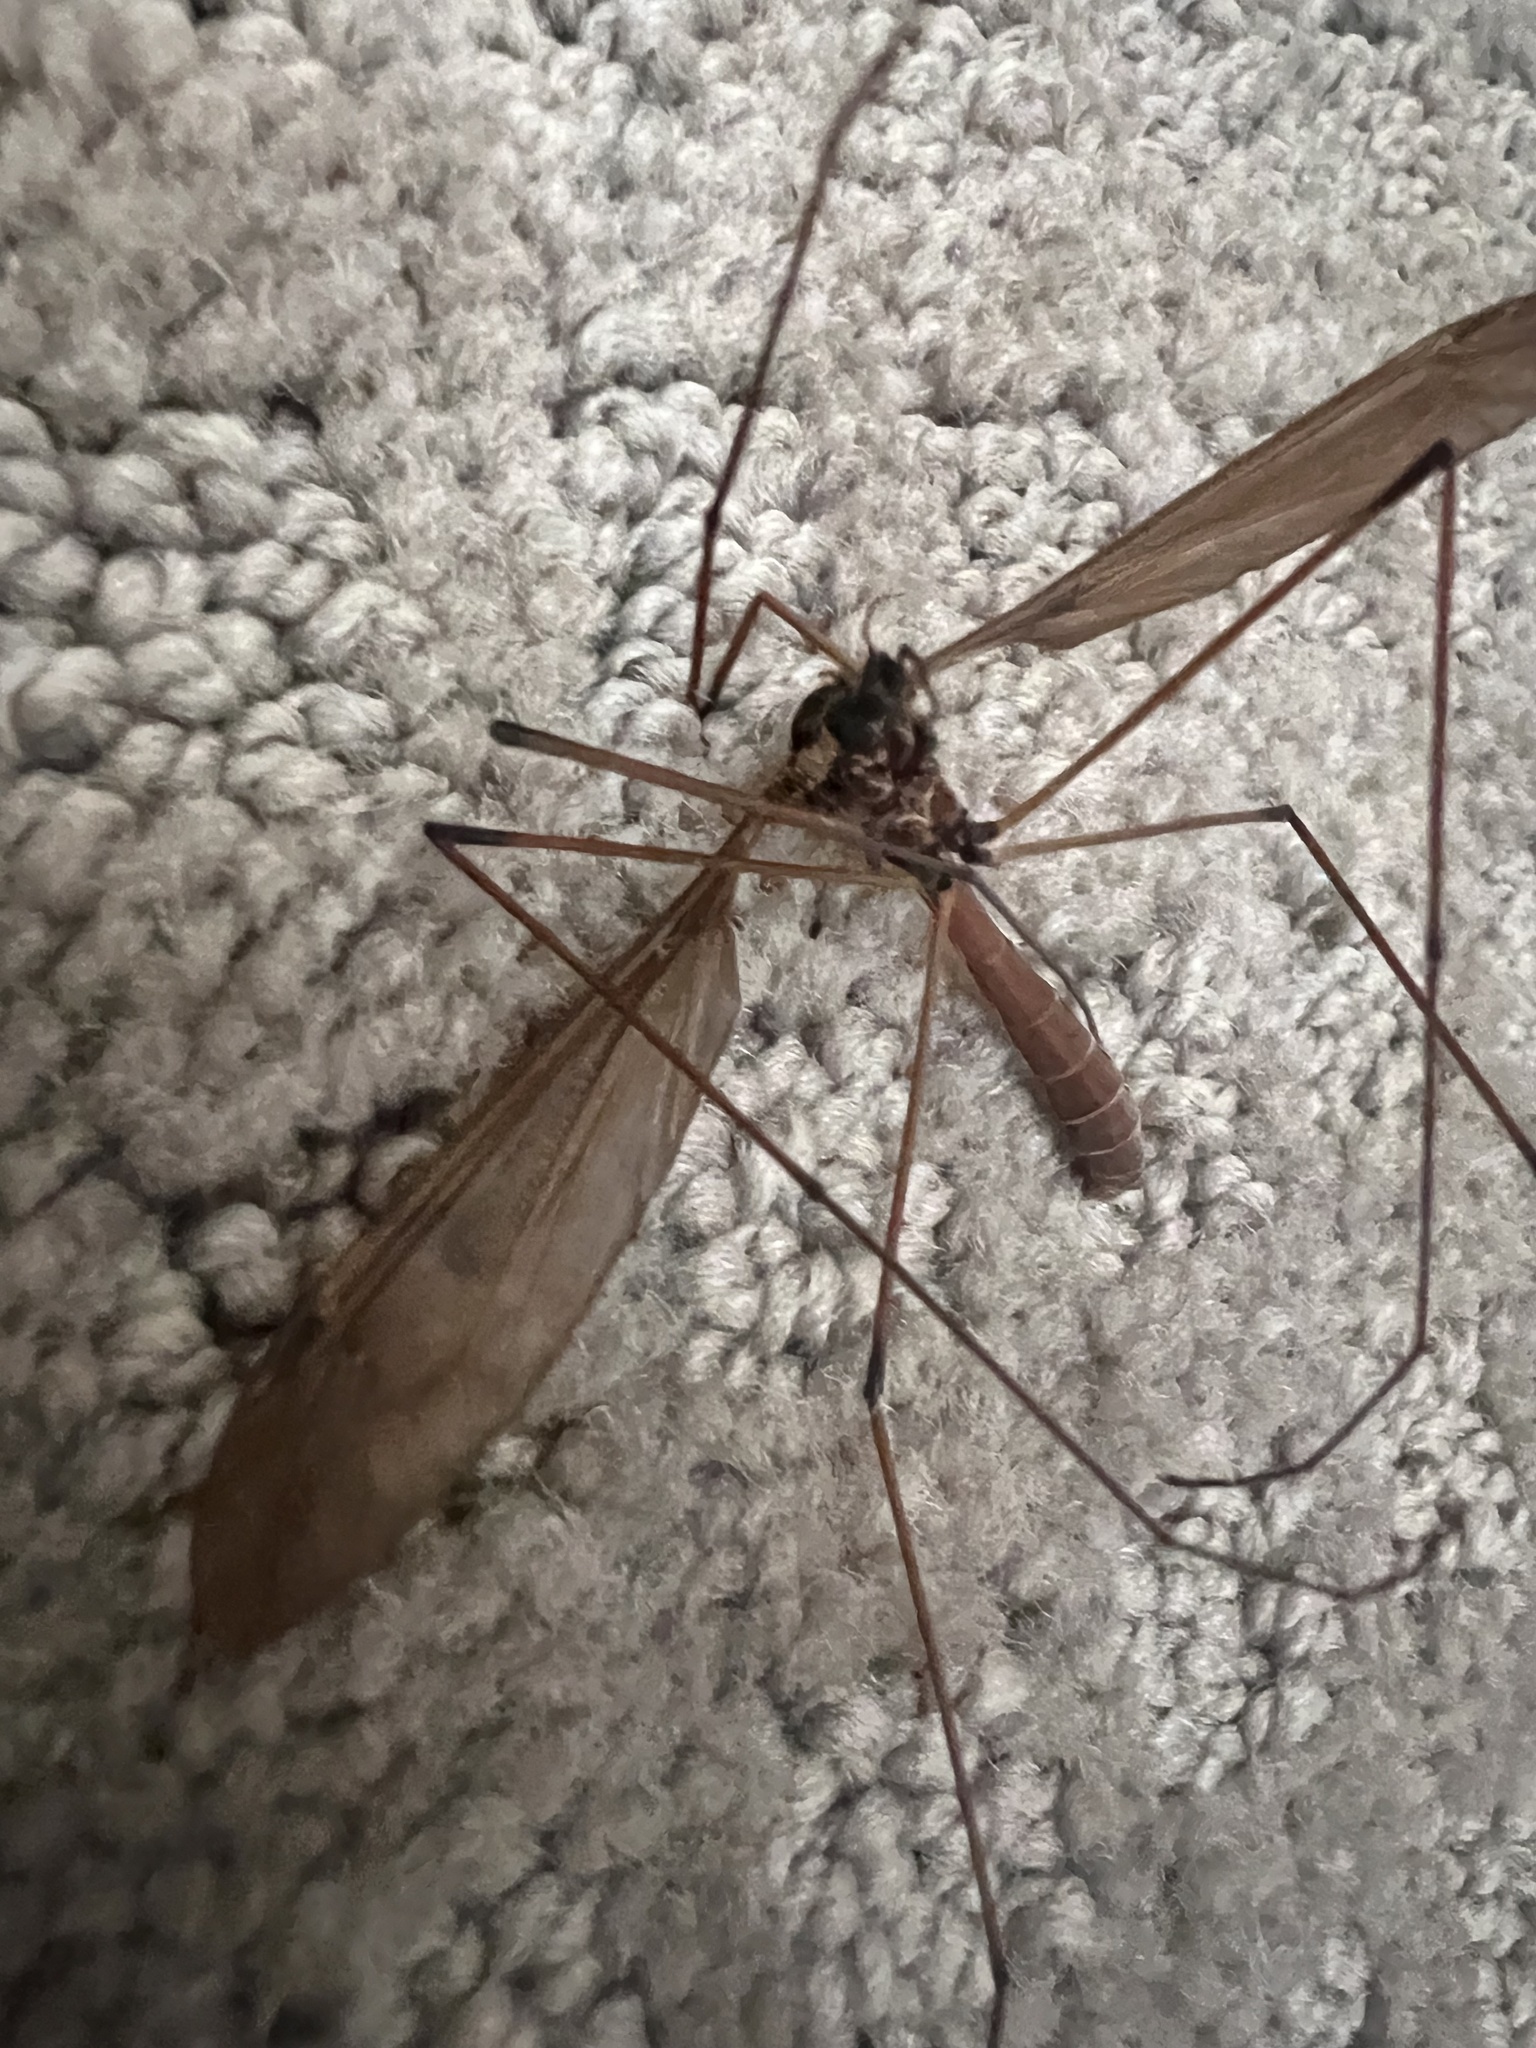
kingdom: Animalia
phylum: Arthropoda
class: Insecta
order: Diptera
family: Tipulidae
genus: Holorusia
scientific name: Holorusia hespera
